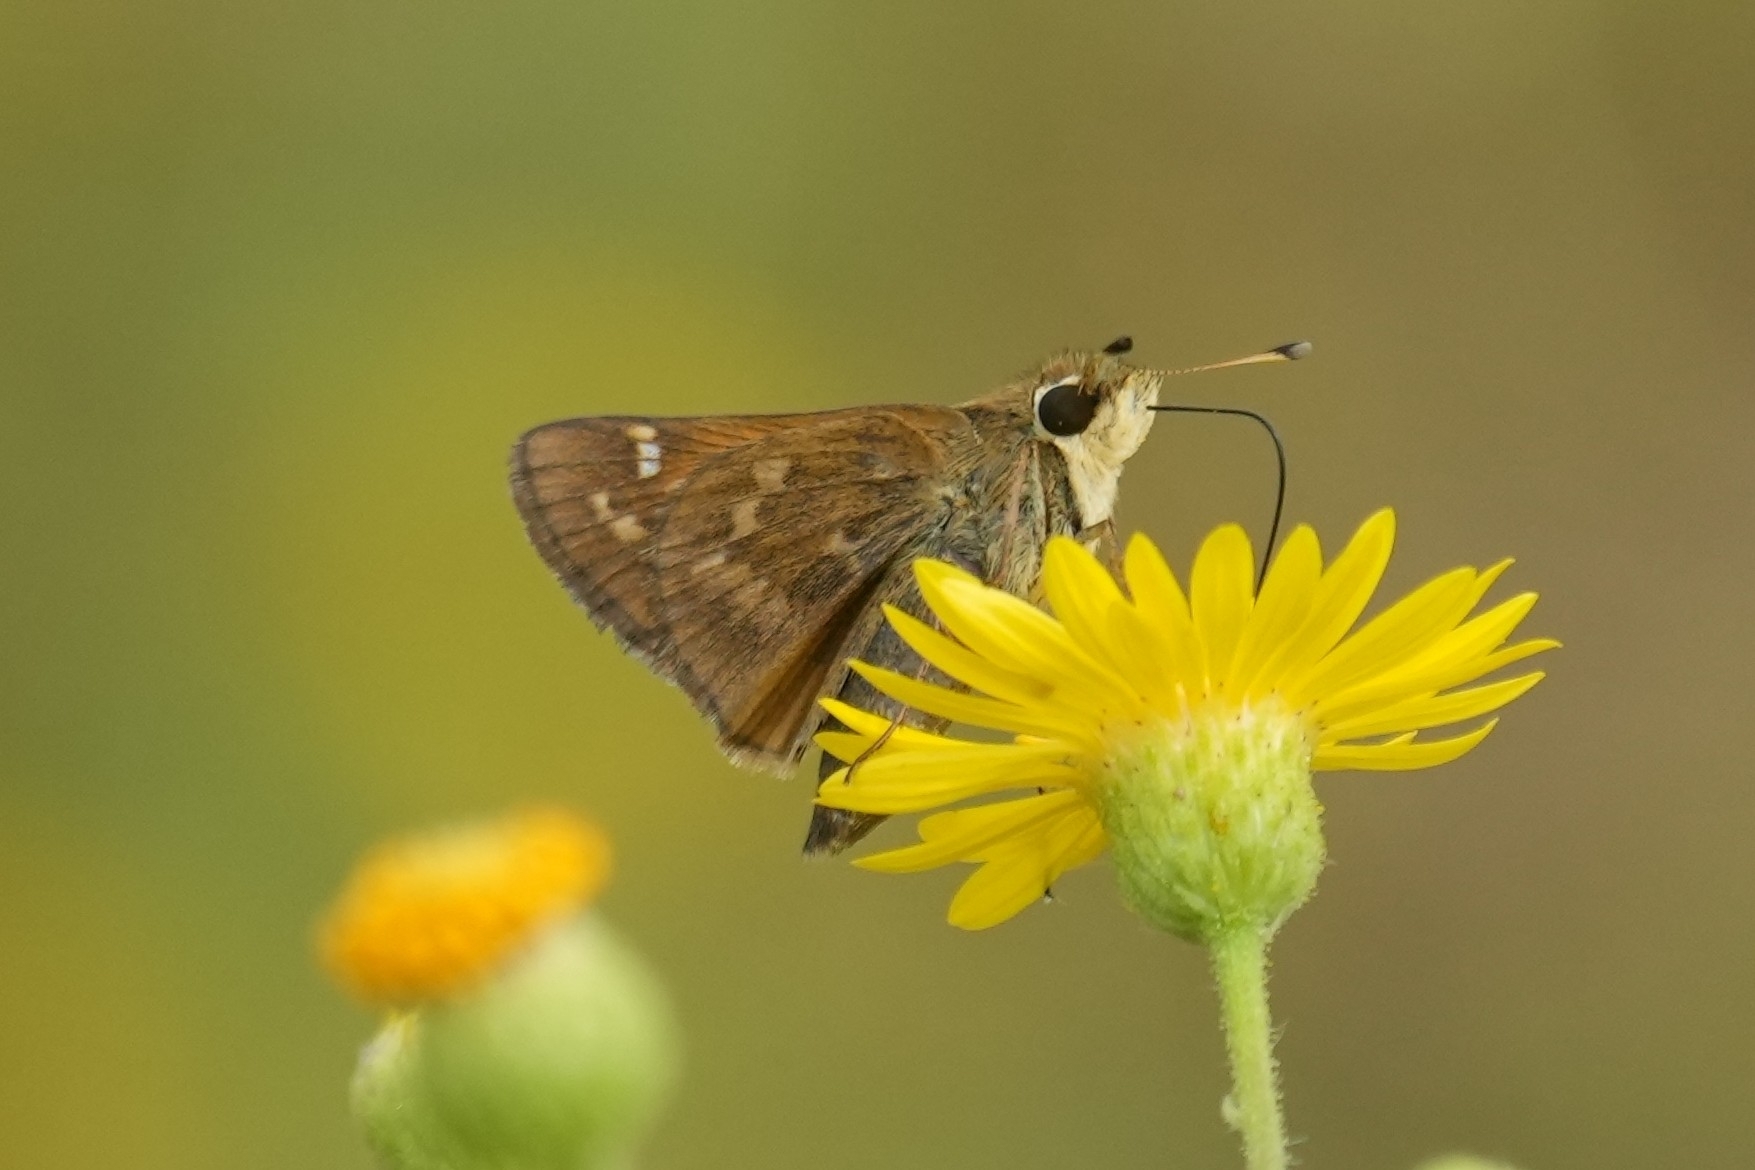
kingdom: Animalia
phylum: Arthropoda
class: Insecta
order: Lepidoptera
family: Hesperiidae
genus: Atalopedes
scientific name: Atalopedes
